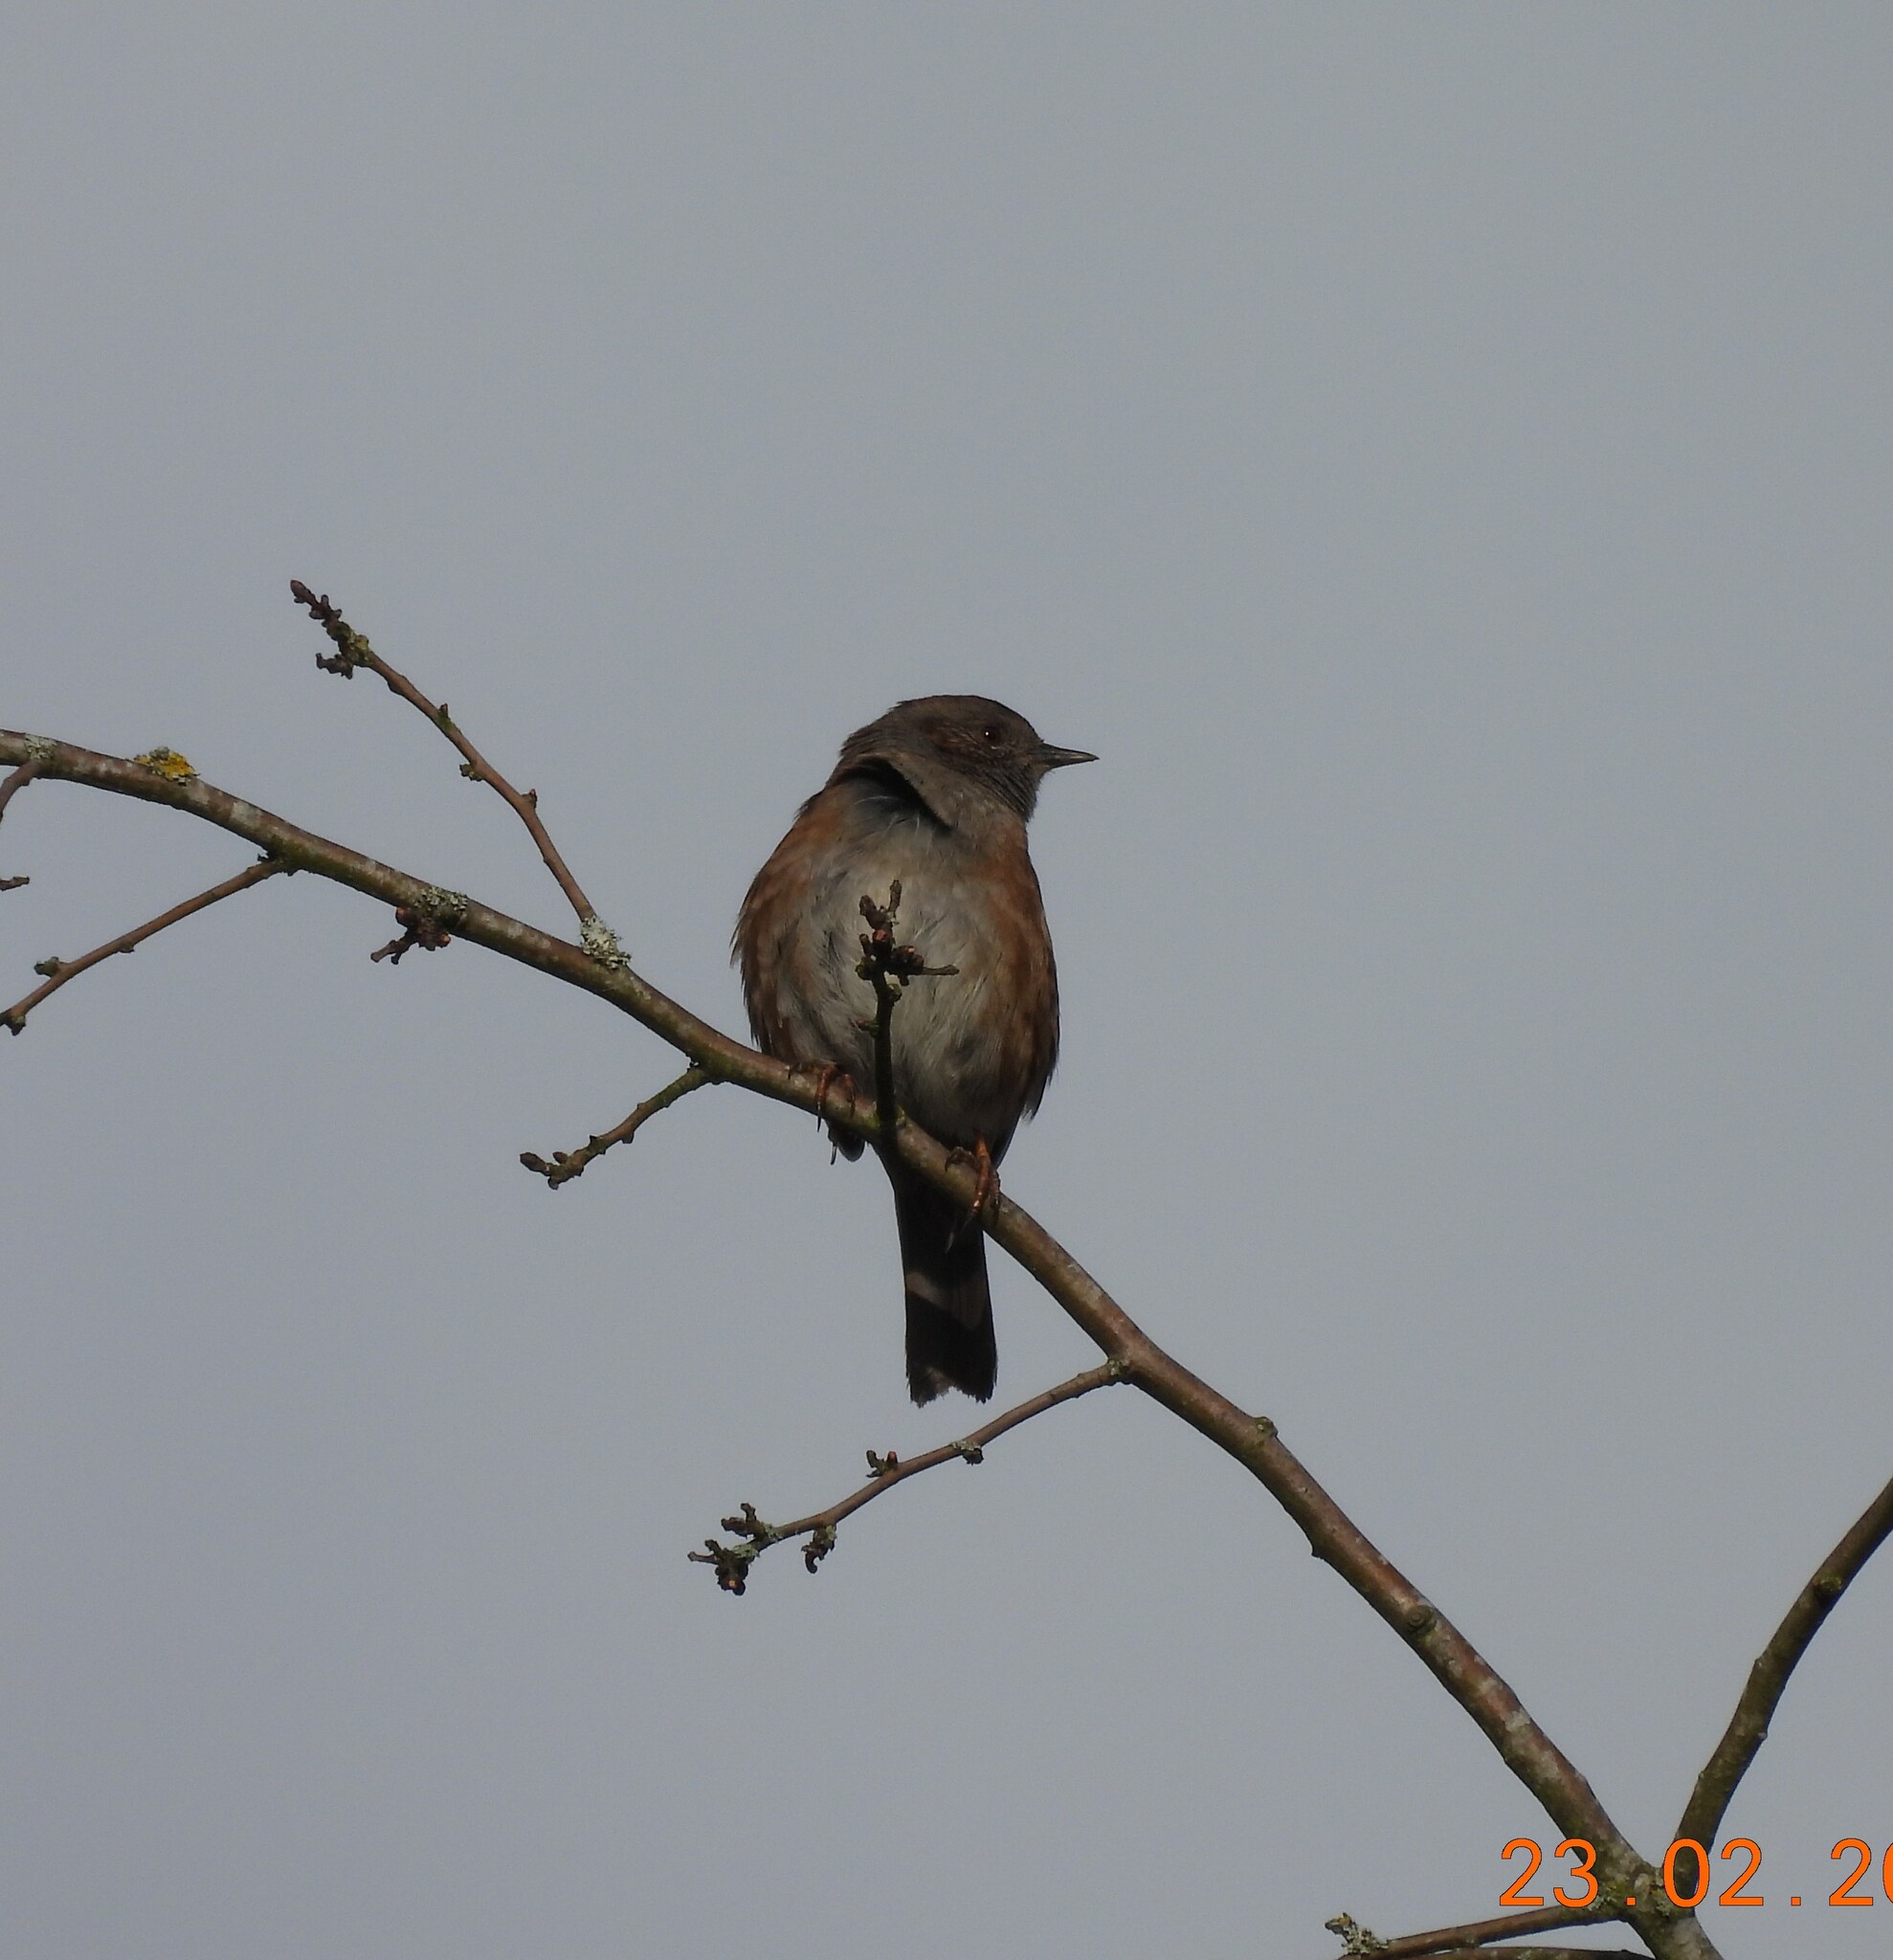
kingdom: Animalia
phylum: Chordata
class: Aves
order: Passeriformes
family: Prunellidae
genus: Prunella
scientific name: Prunella modularis
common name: Dunnock
